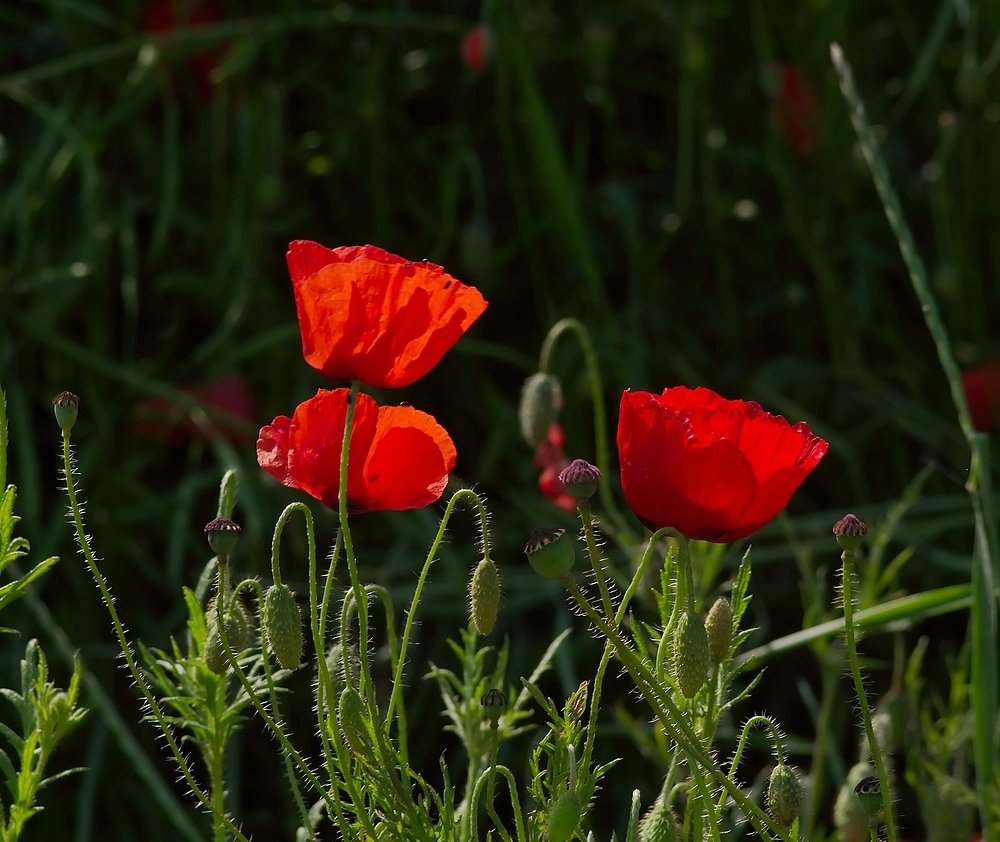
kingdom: Plantae
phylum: Tracheophyta
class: Magnoliopsida
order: Ranunculales
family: Papaveraceae
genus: Papaver
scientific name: Papaver rhoeas
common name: Corn poppy
